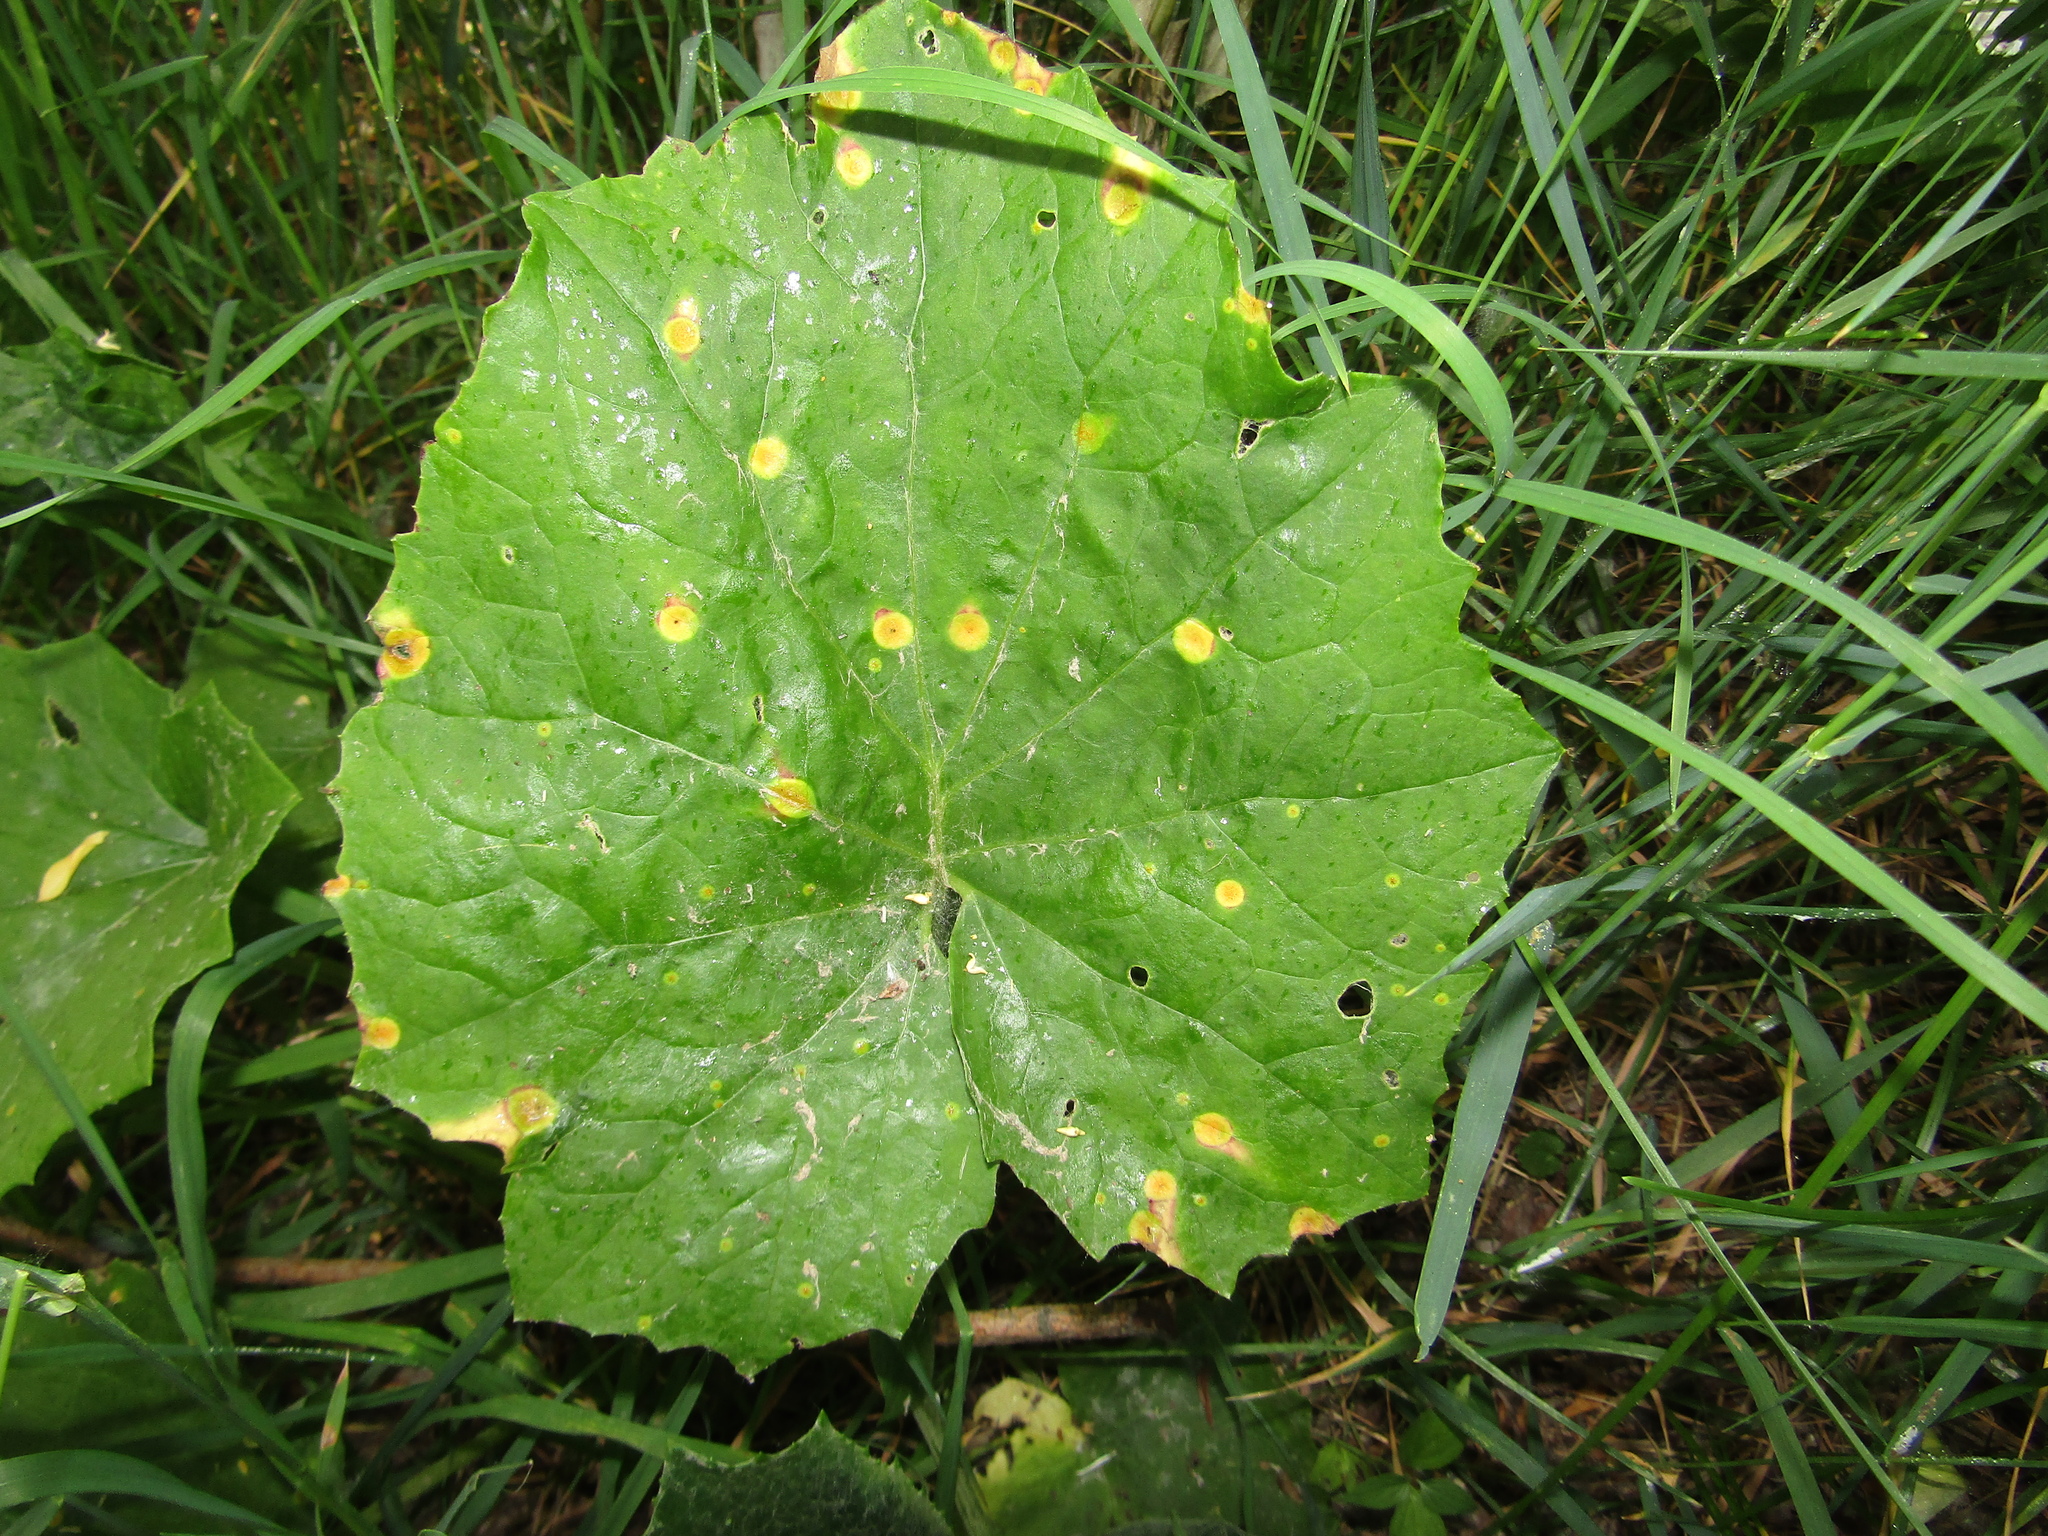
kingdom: Plantae
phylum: Tracheophyta
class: Magnoliopsida
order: Asterales
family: Asteraceae
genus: Tussilago
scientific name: Tussilago farfara
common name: Coltsfoot
